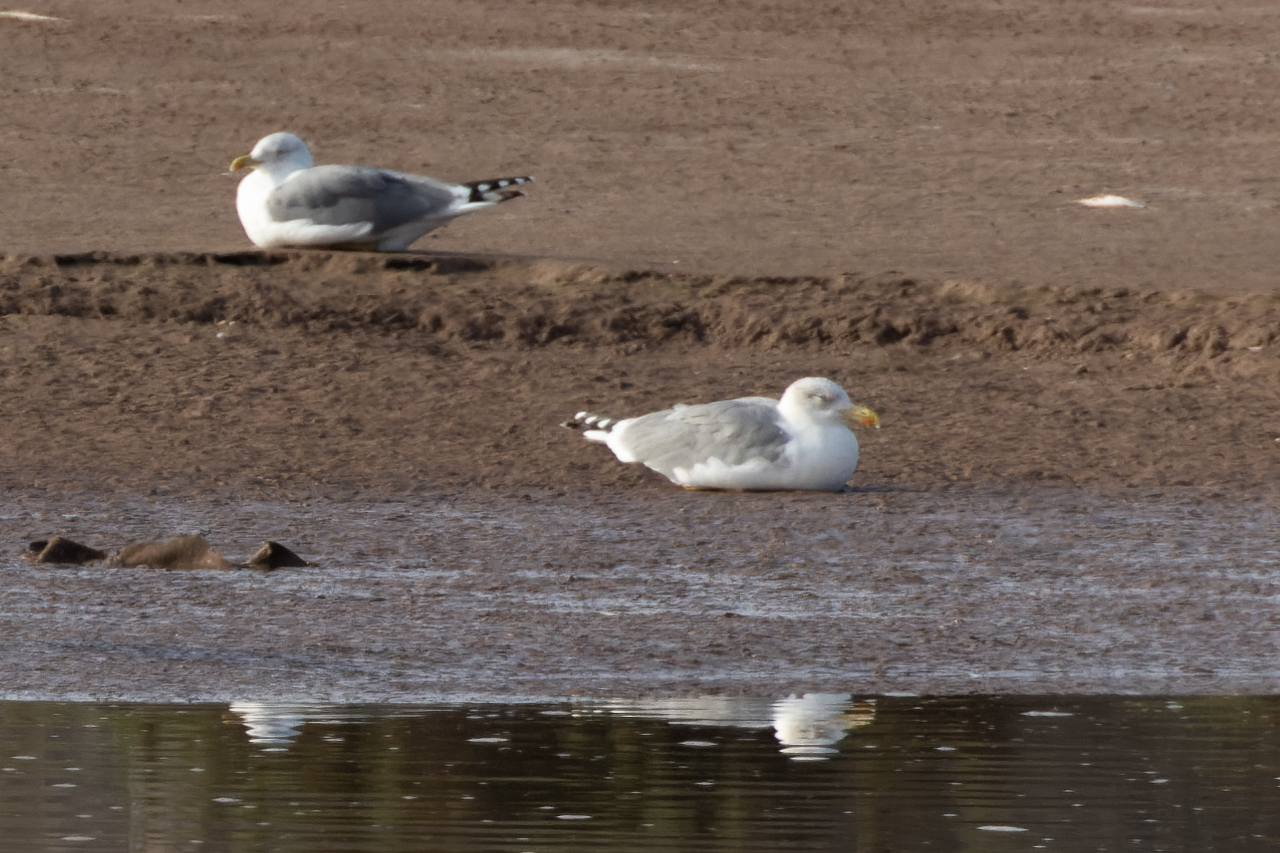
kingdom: Animalia
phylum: Chordata
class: Aves
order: Charadriiformes
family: Laridae
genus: Larus
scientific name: Larus michahellis
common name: Yellow-legged gull
